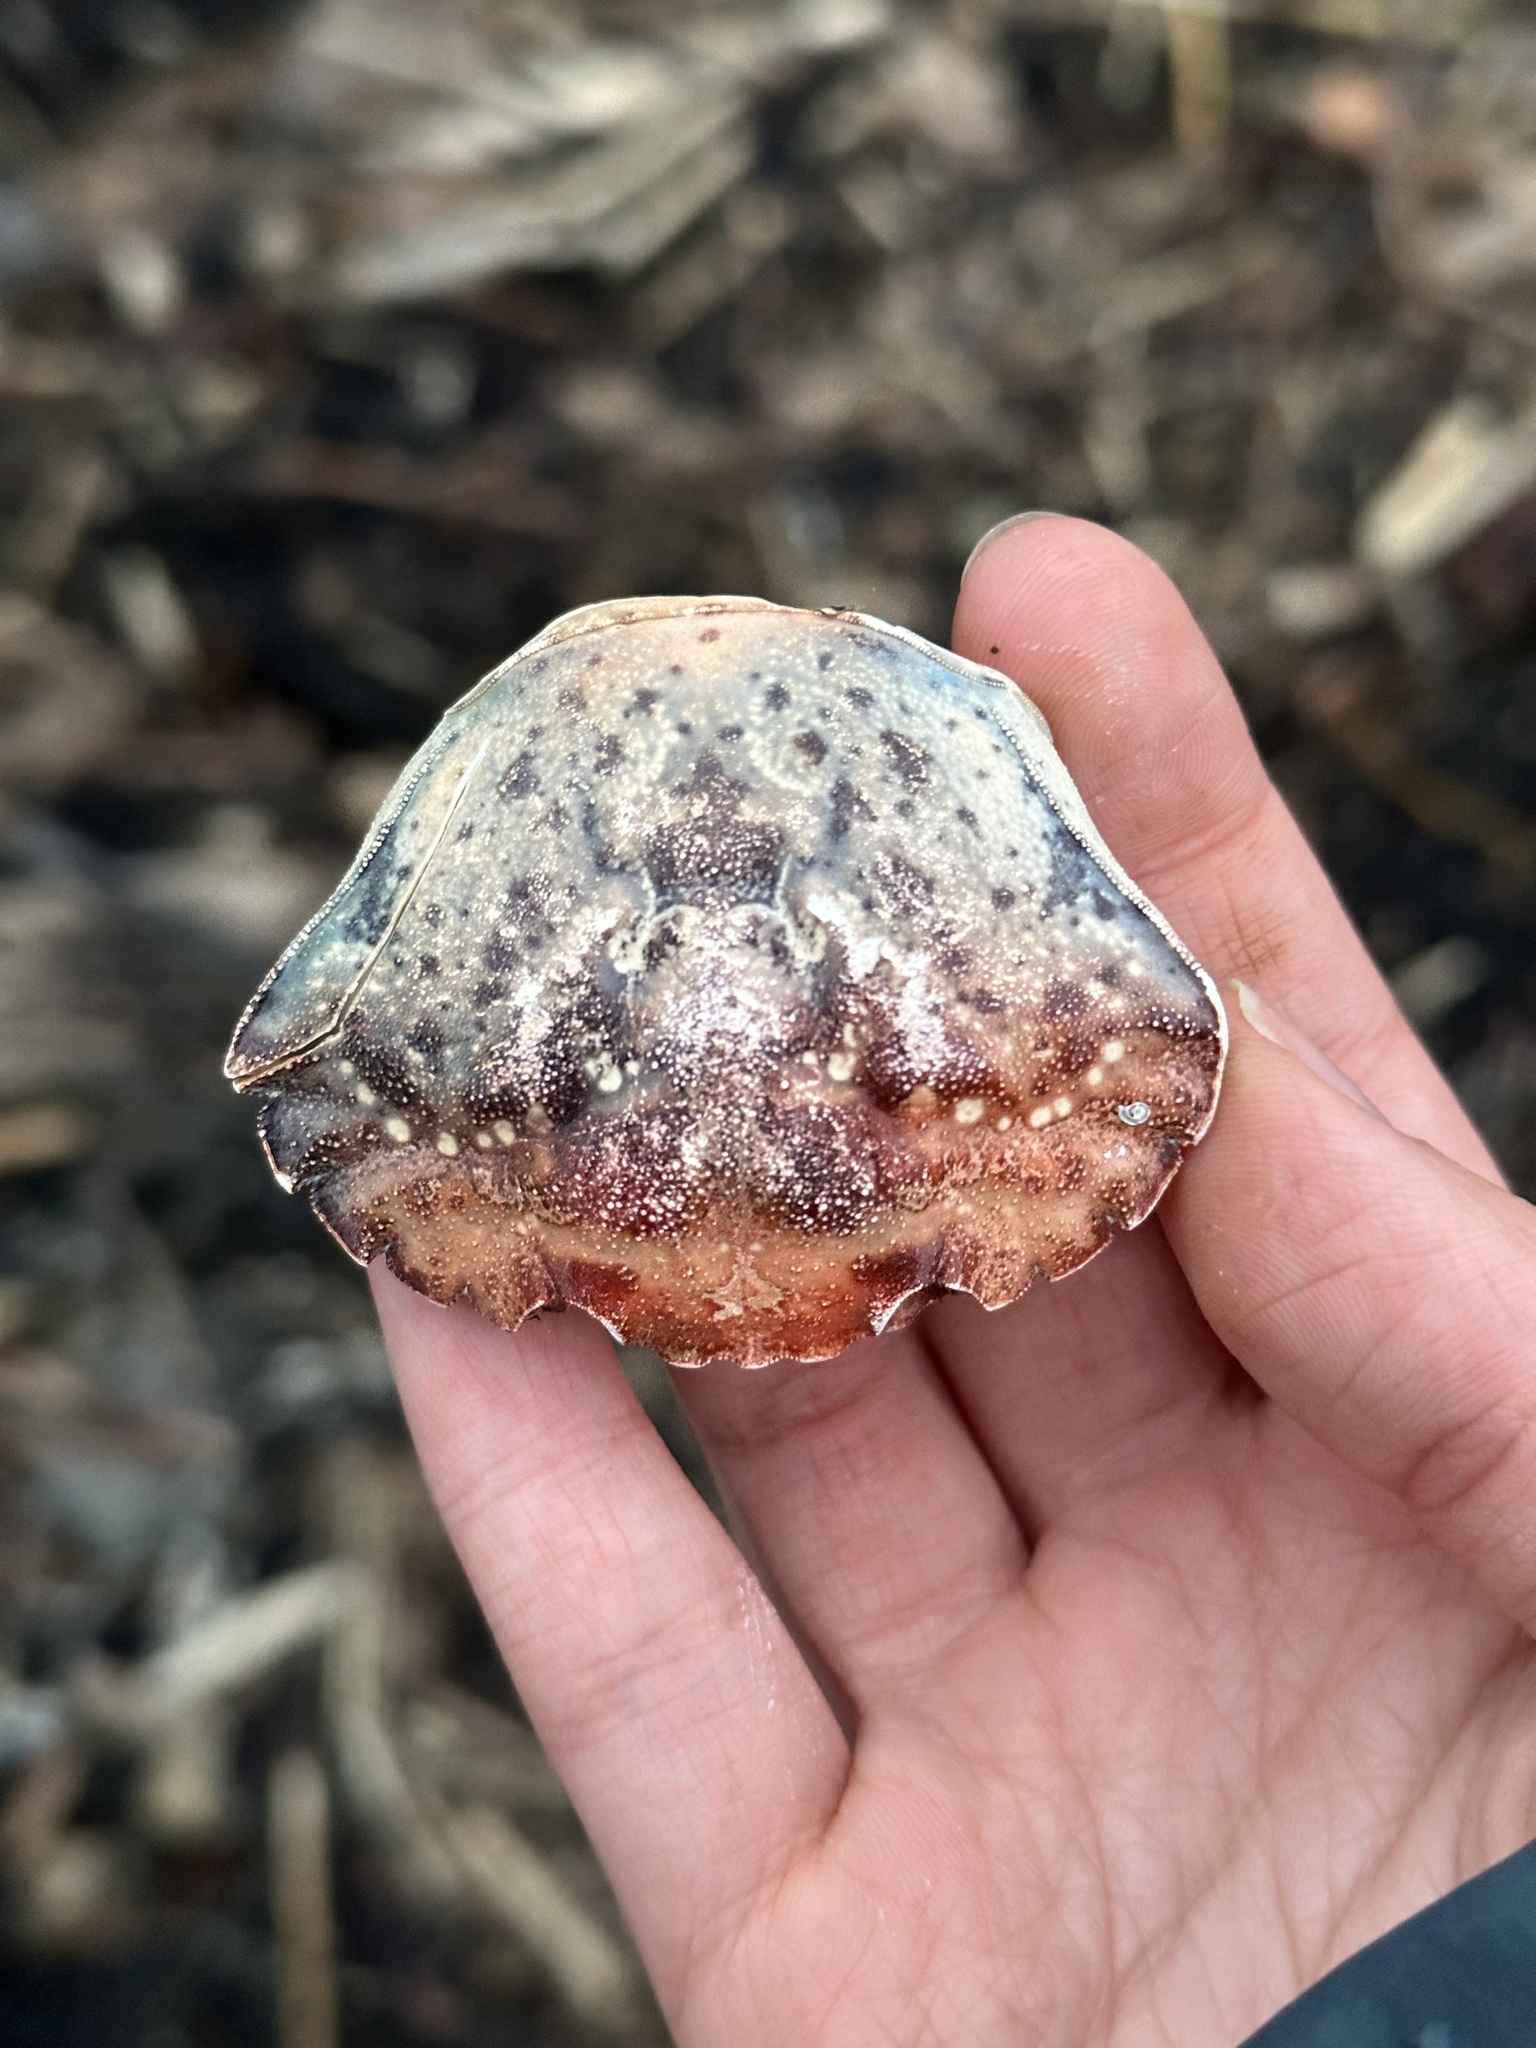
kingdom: Animalia
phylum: Arthropoda
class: Malacostraca
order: Decapoda
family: Carcinidae
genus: Carcinus
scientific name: Carcinus maenas
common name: European green crab
